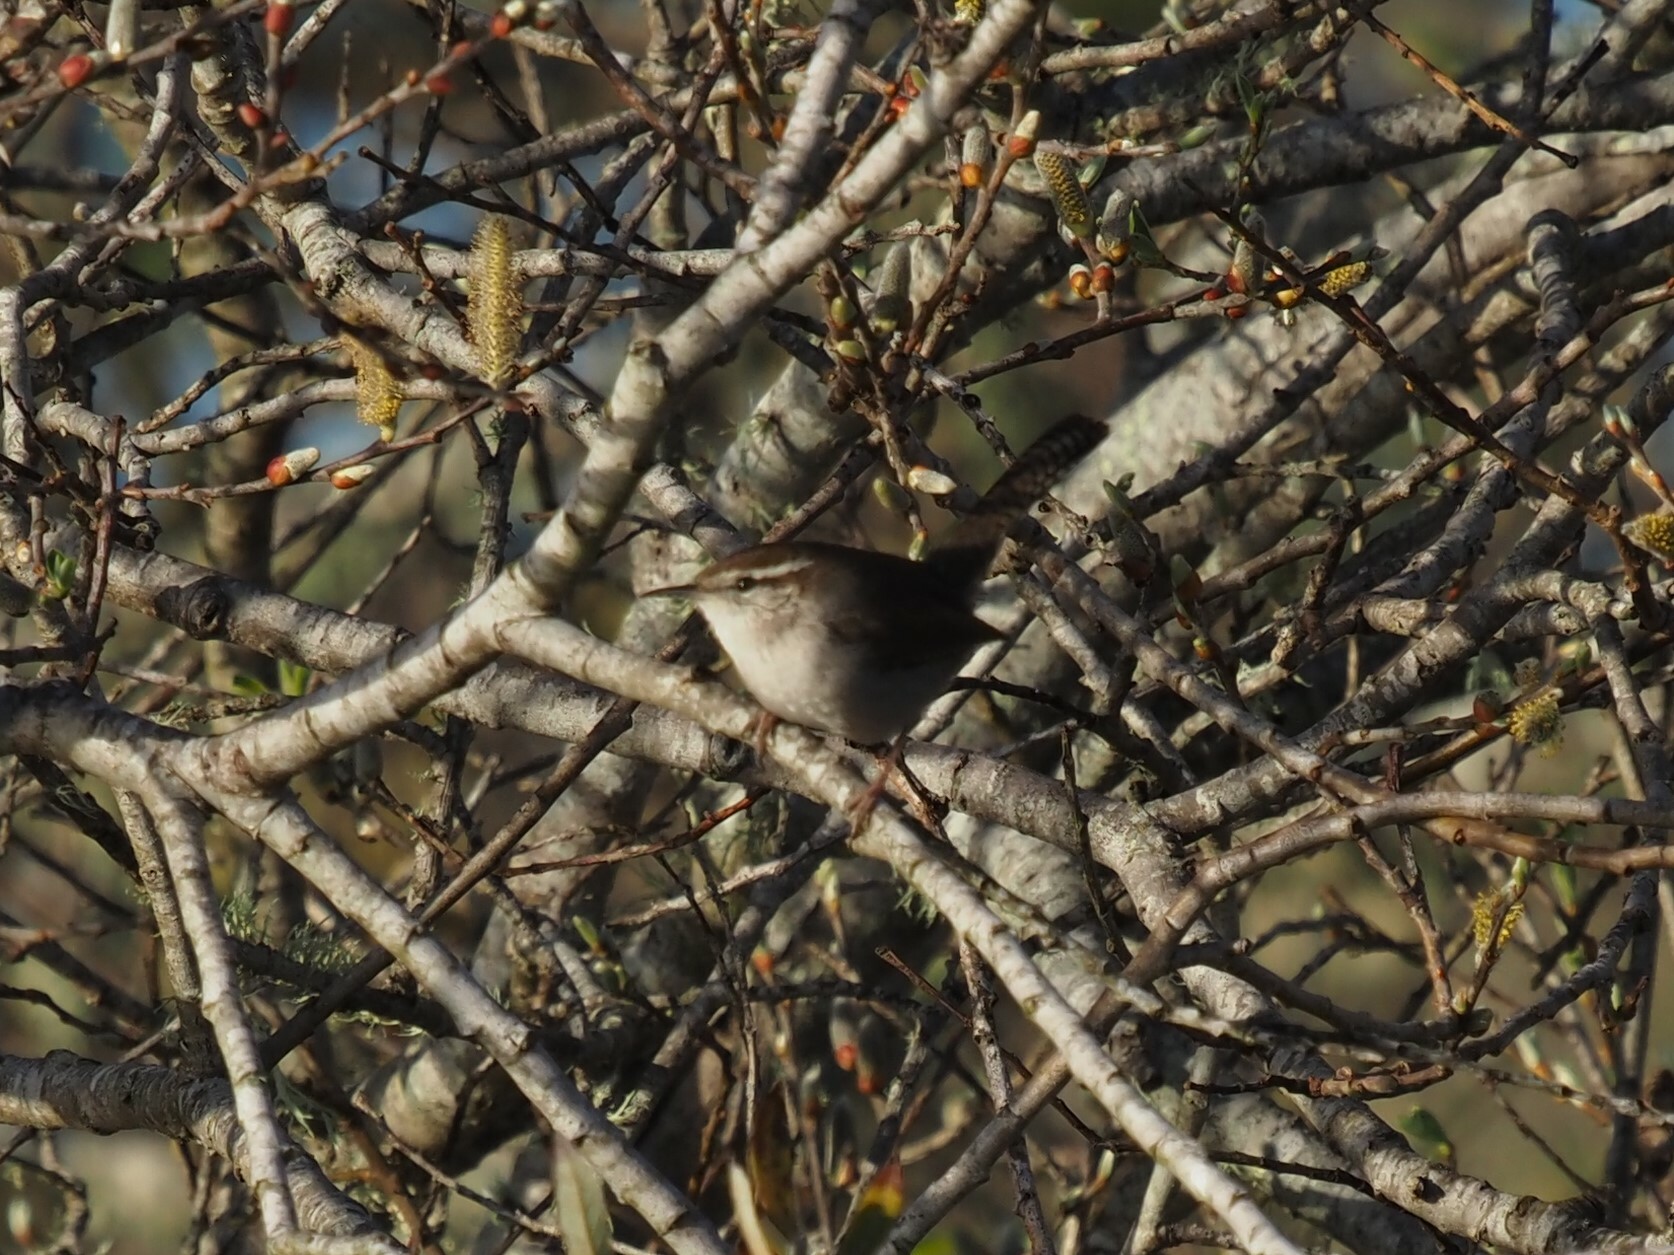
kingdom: Animalia
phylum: Chordata
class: Aves
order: Passeriformes
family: Troglodytidae
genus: Thryomanes
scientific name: Thryomanes bewickii
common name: Bewick's wren
